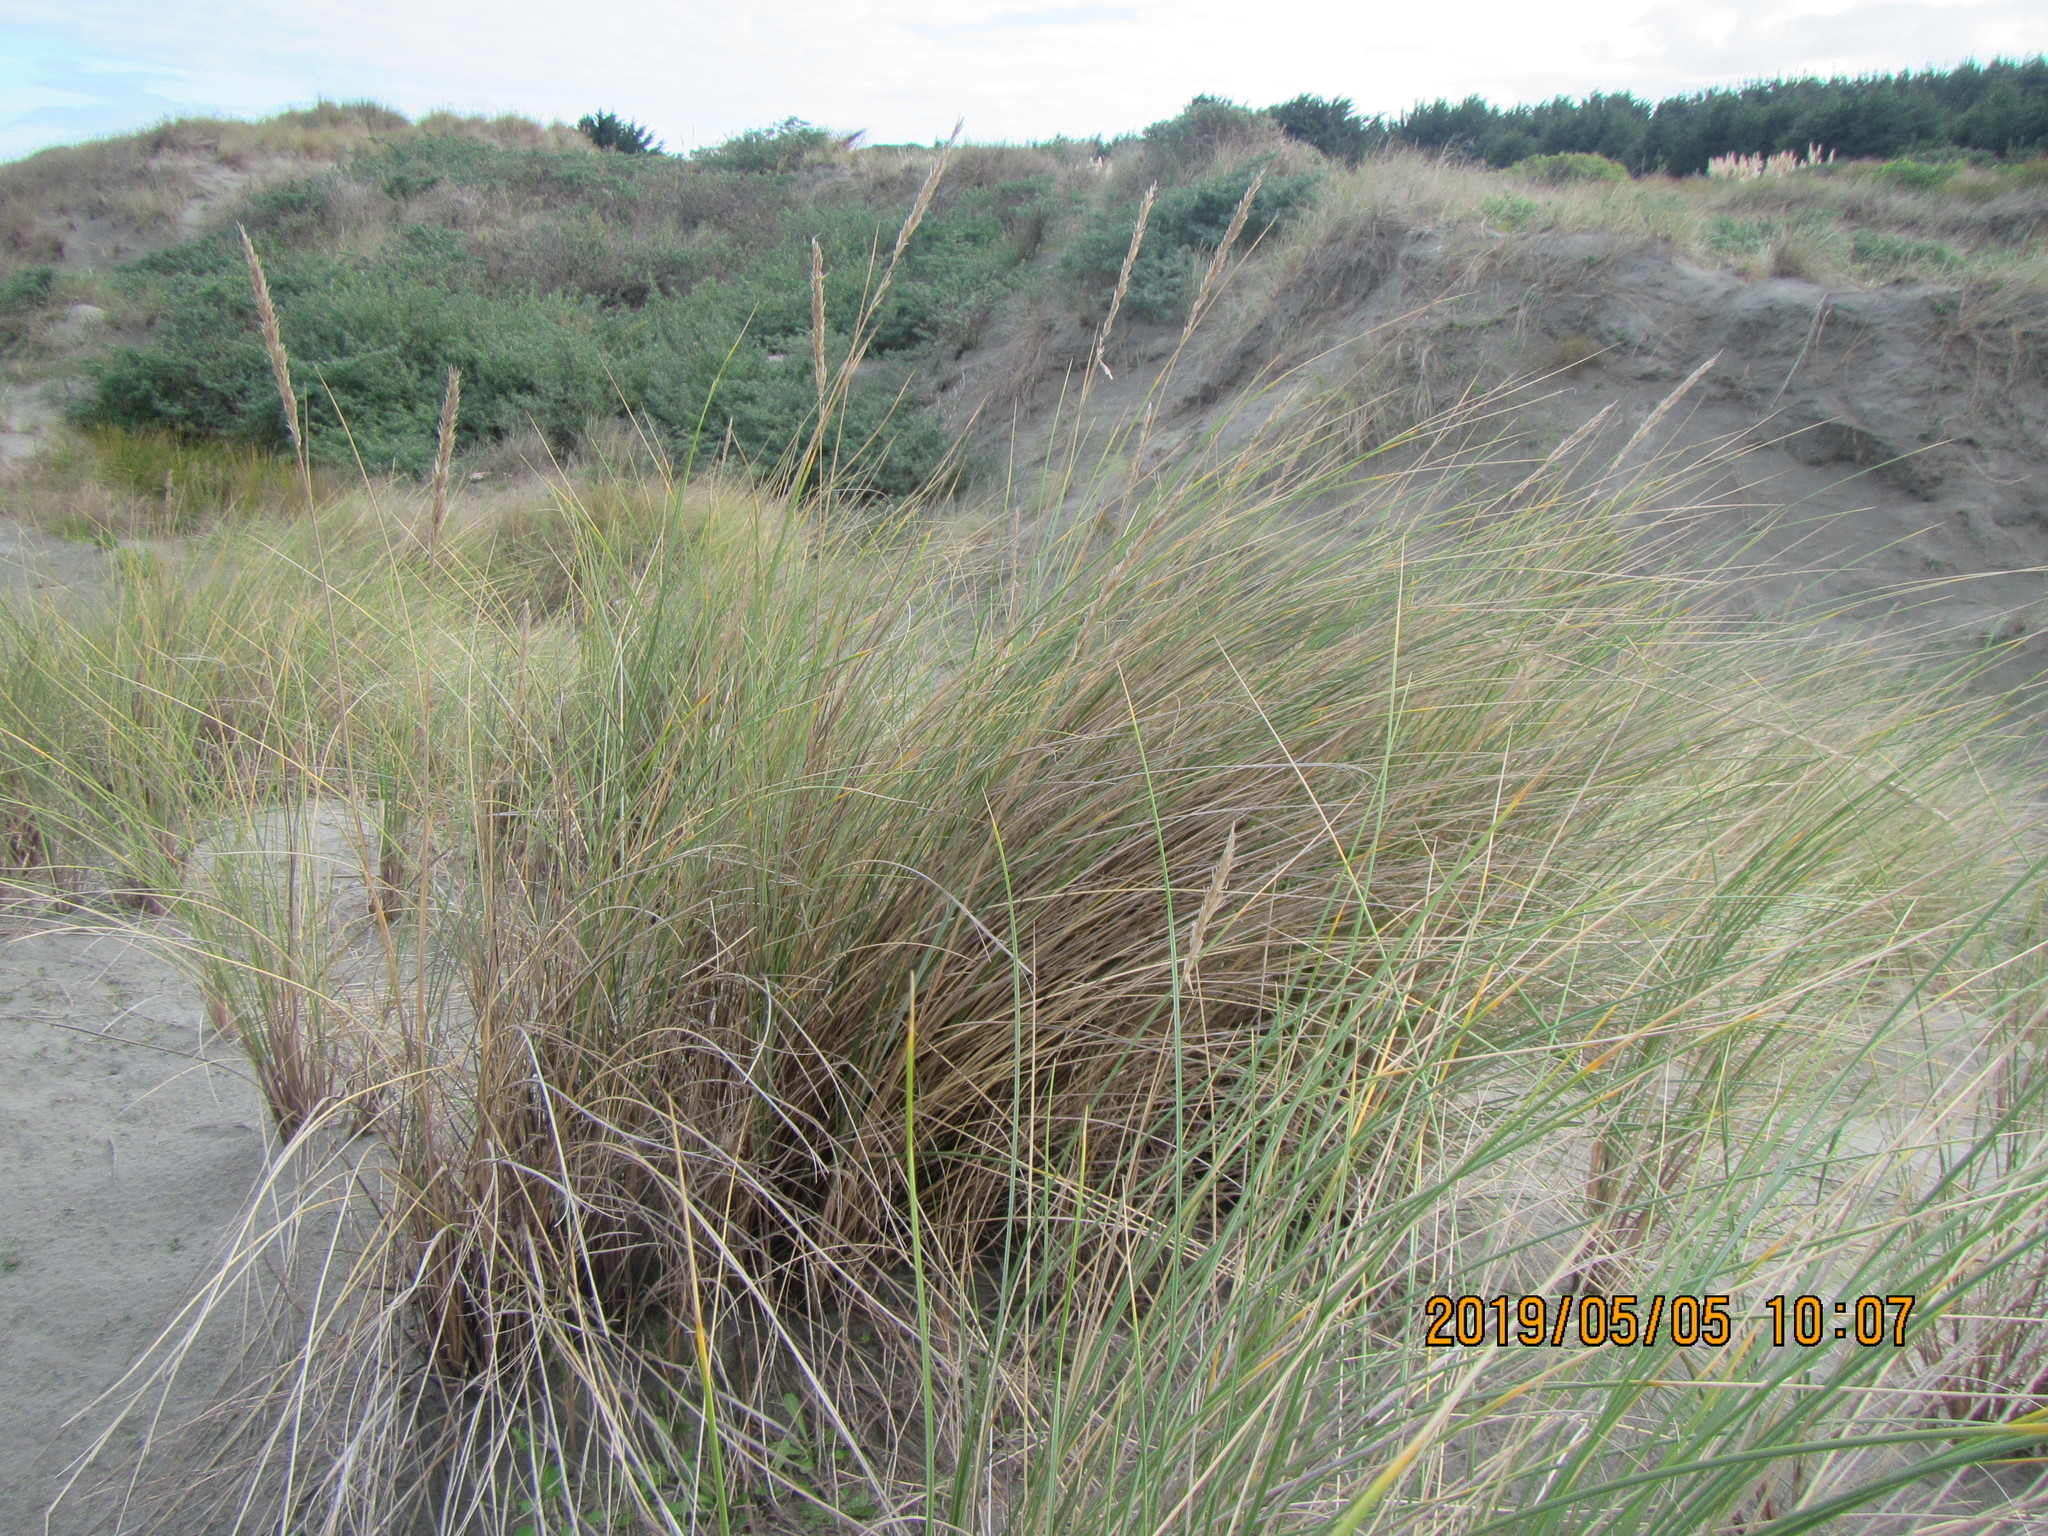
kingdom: Plantae
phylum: Tracheophyta
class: Liliopsida
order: Poales
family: Poaceae
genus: Calamagrostis
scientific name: Calamagrostis arenaria
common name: European beachgrass
